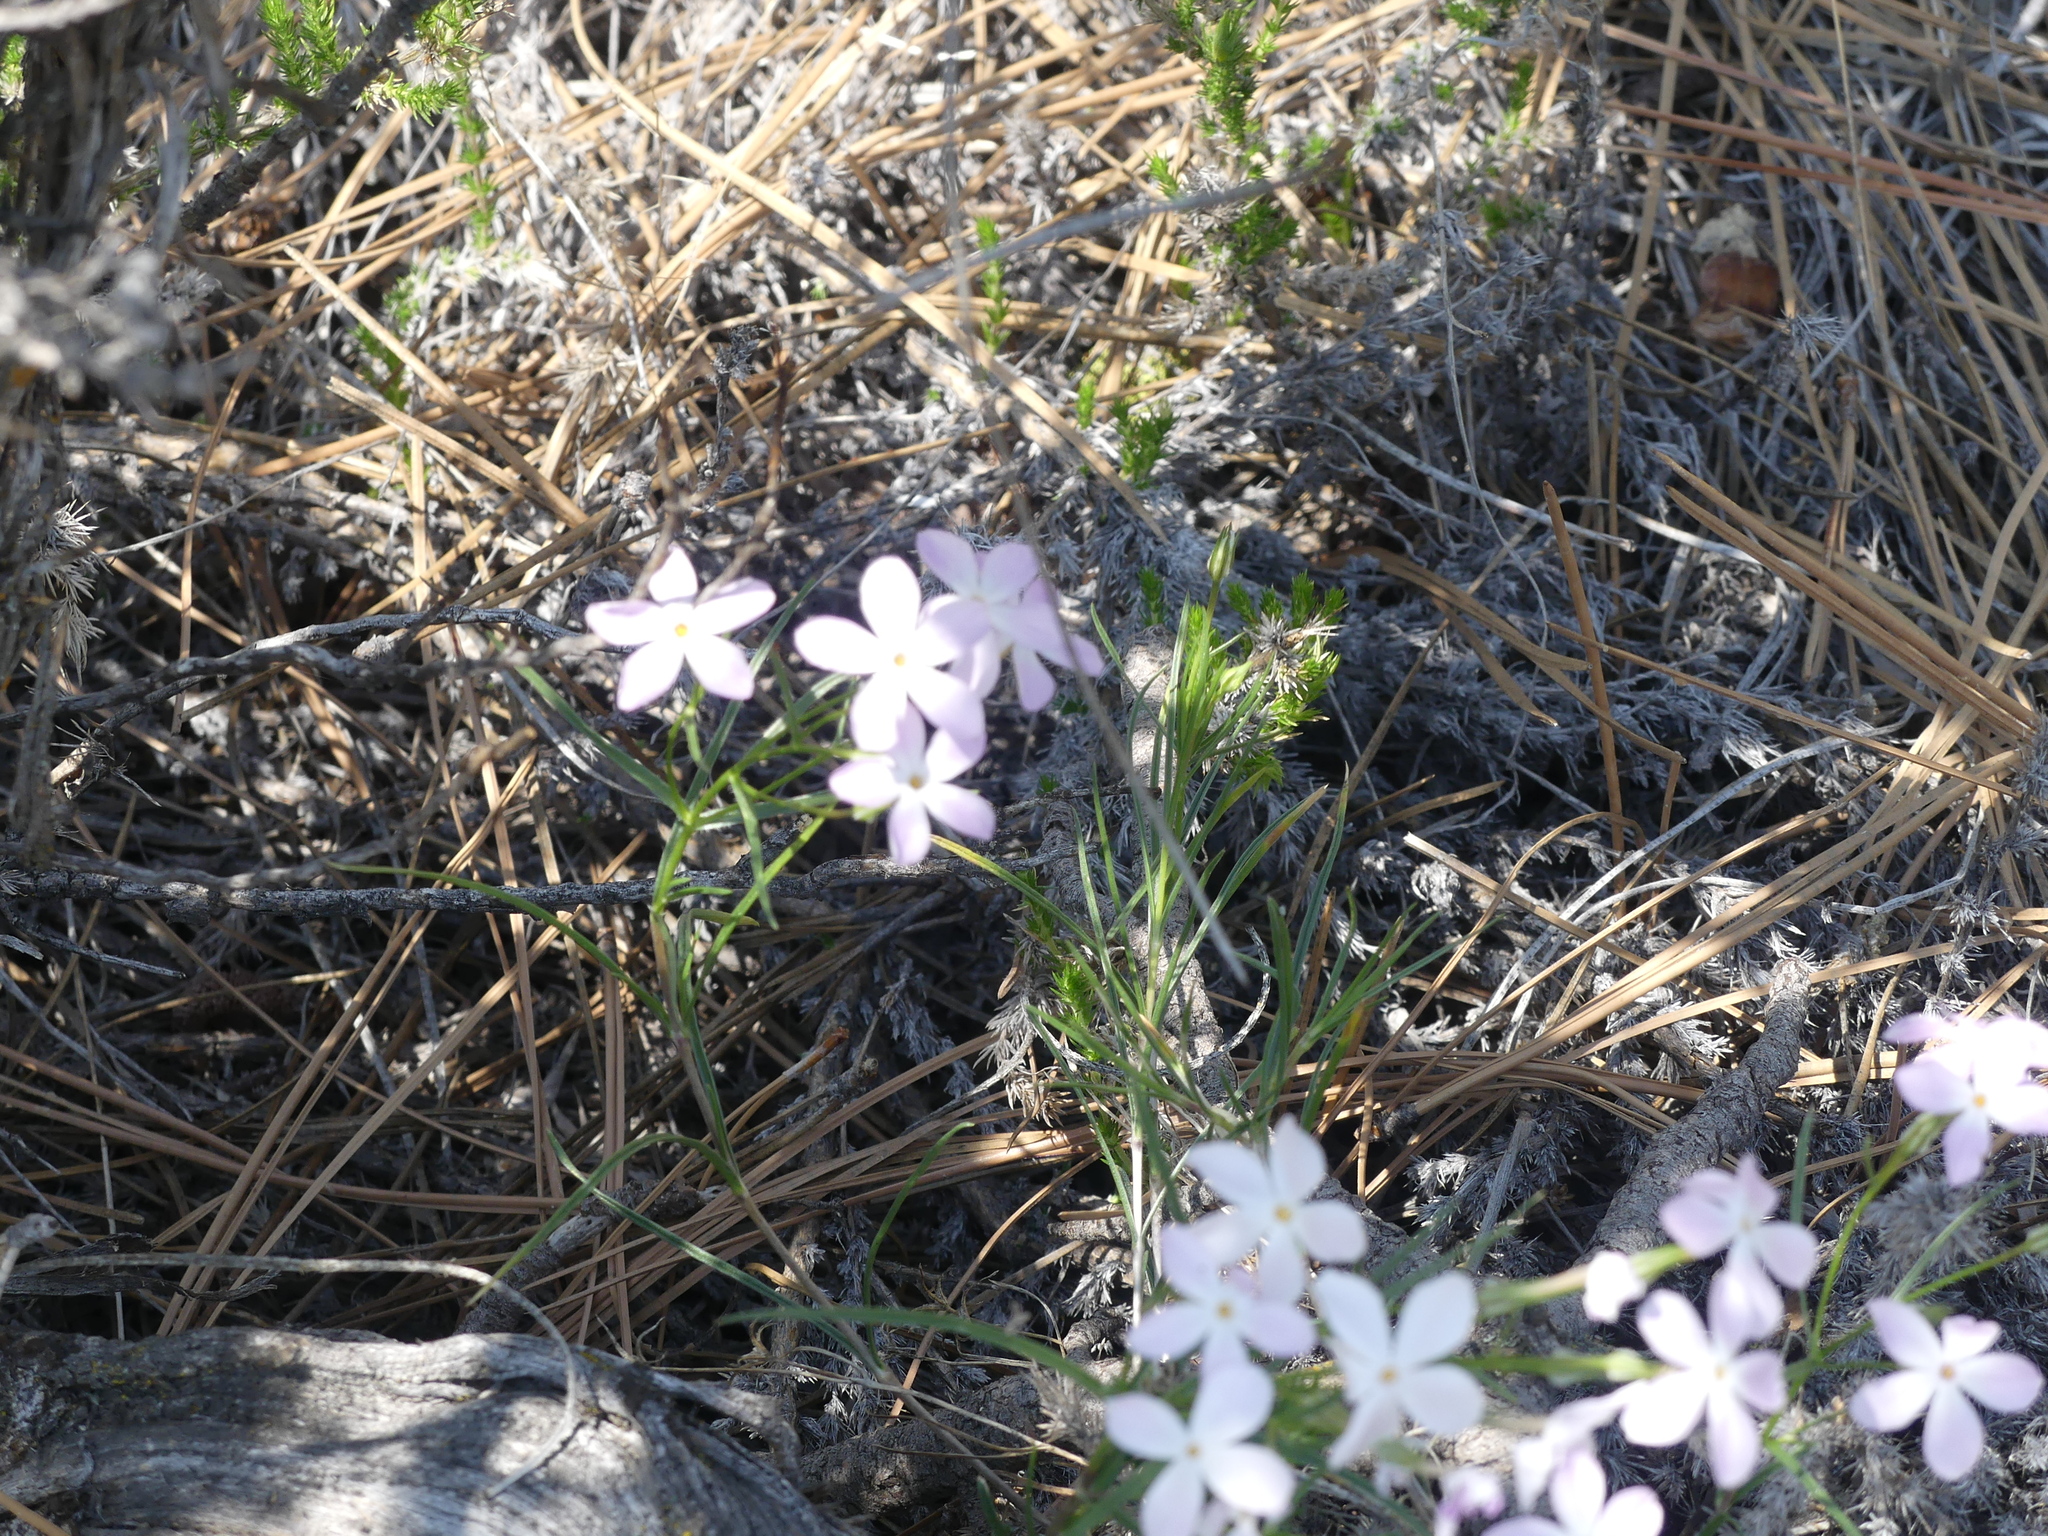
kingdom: Plantae
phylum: Tracheophyta
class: Magnoliopsida
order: Ericales
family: Polemoniaceae
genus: Phlox
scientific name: Phlox longifolia
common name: Longleaf phlox
